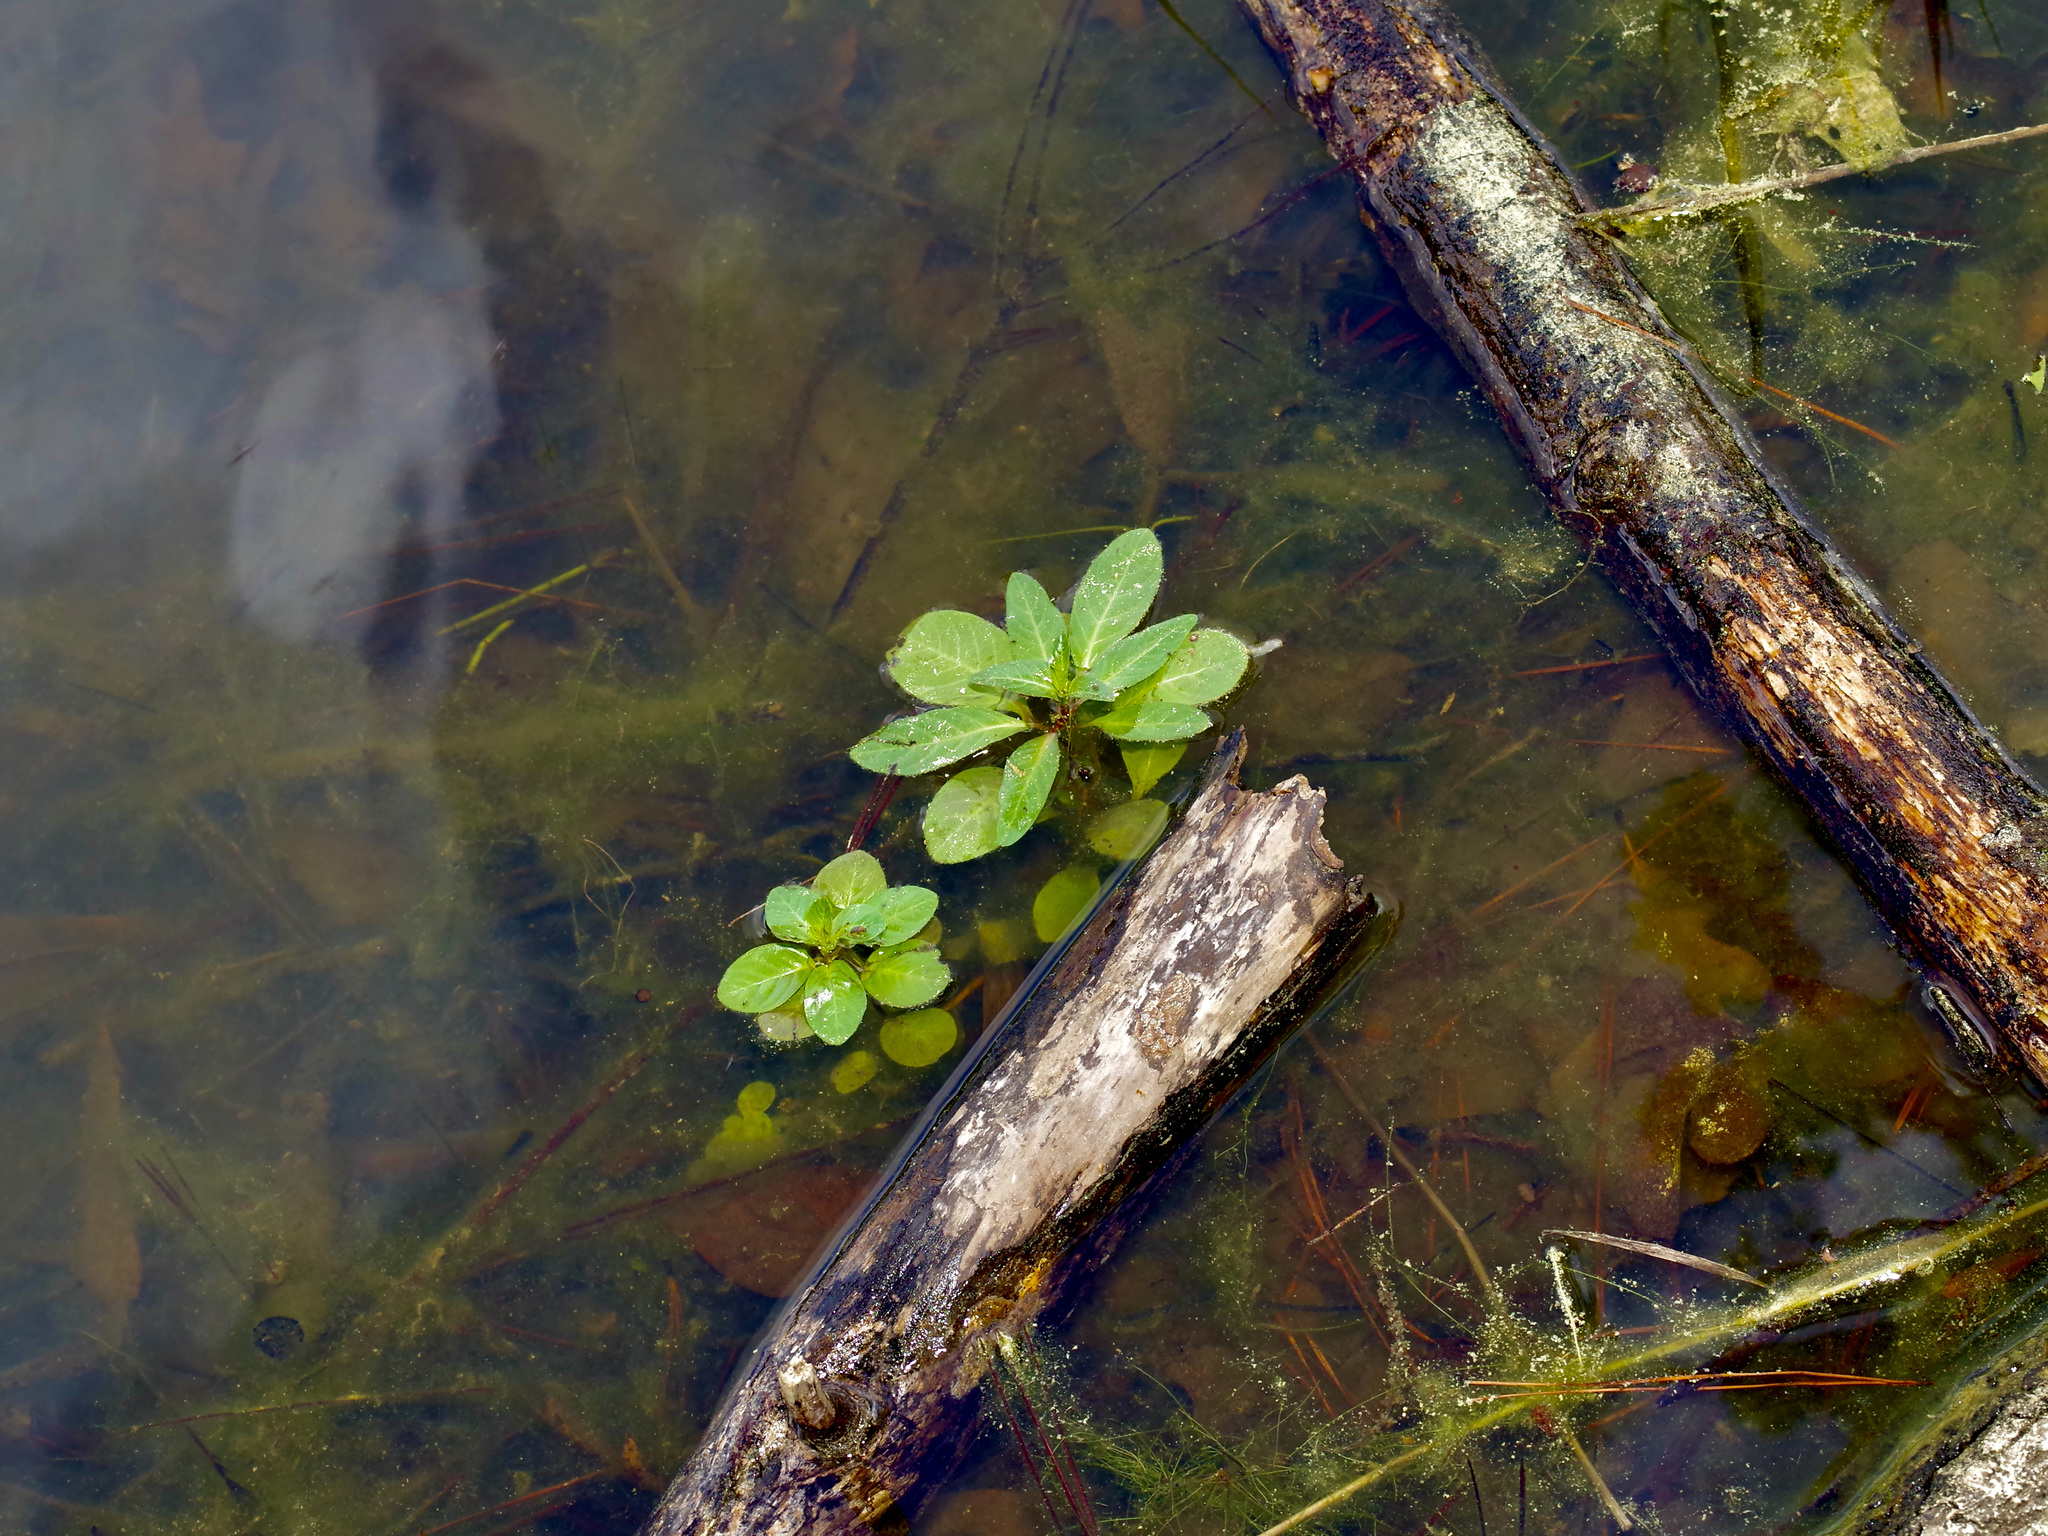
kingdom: Plantae
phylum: Tracheophyta
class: Magnoliopsida
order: Myrtales
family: Onagraceae
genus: Ludwigia
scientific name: Ludwigia peploides
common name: Floating primrose-willow
